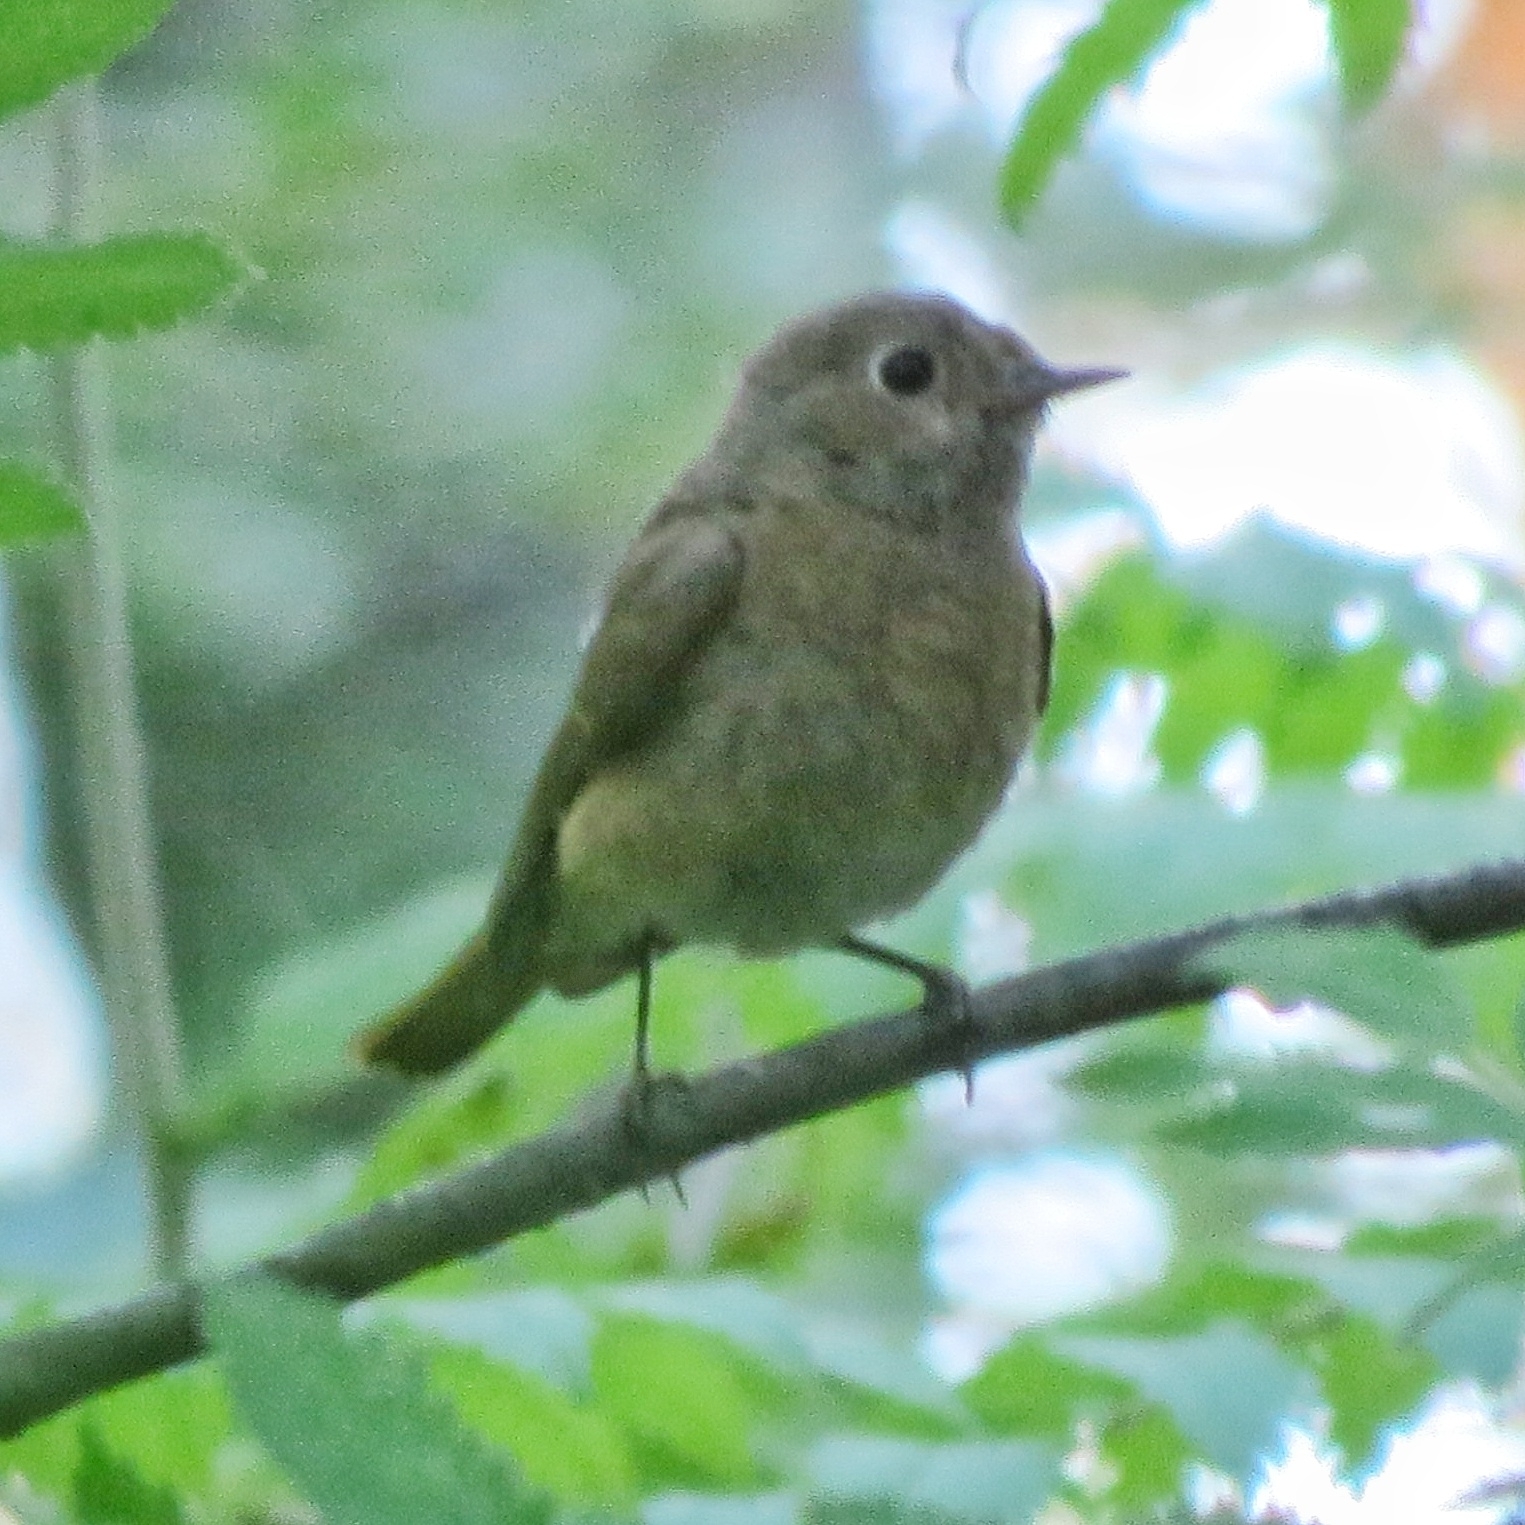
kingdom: Animalia
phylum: Chordata
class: Aves
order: Passeriformes
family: Muscicapidae
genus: Phoenicurus
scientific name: Phoenicurus ochruros
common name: Black redstart
